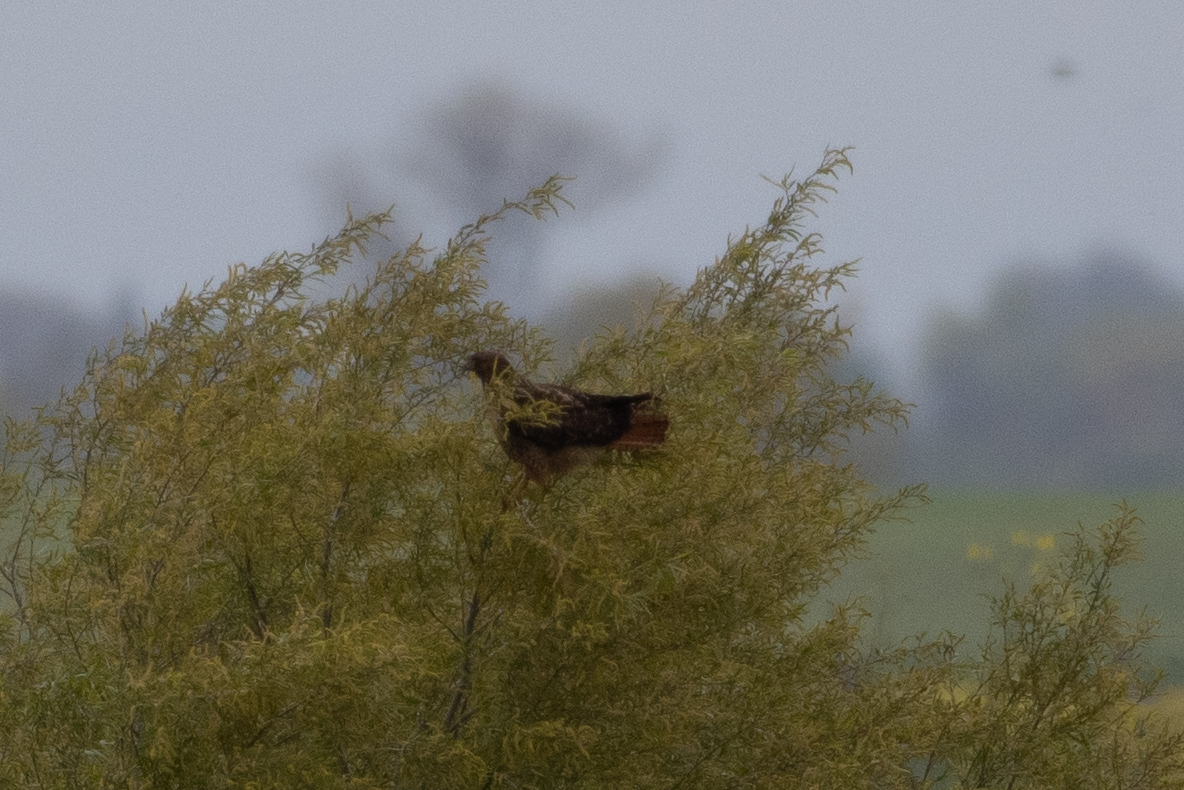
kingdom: Animalia
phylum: Chordata
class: Aves
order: Accipitriformes
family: Accipitridae
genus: Buteo
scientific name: Buteo jamaicensis
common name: Red-tailed hawk
